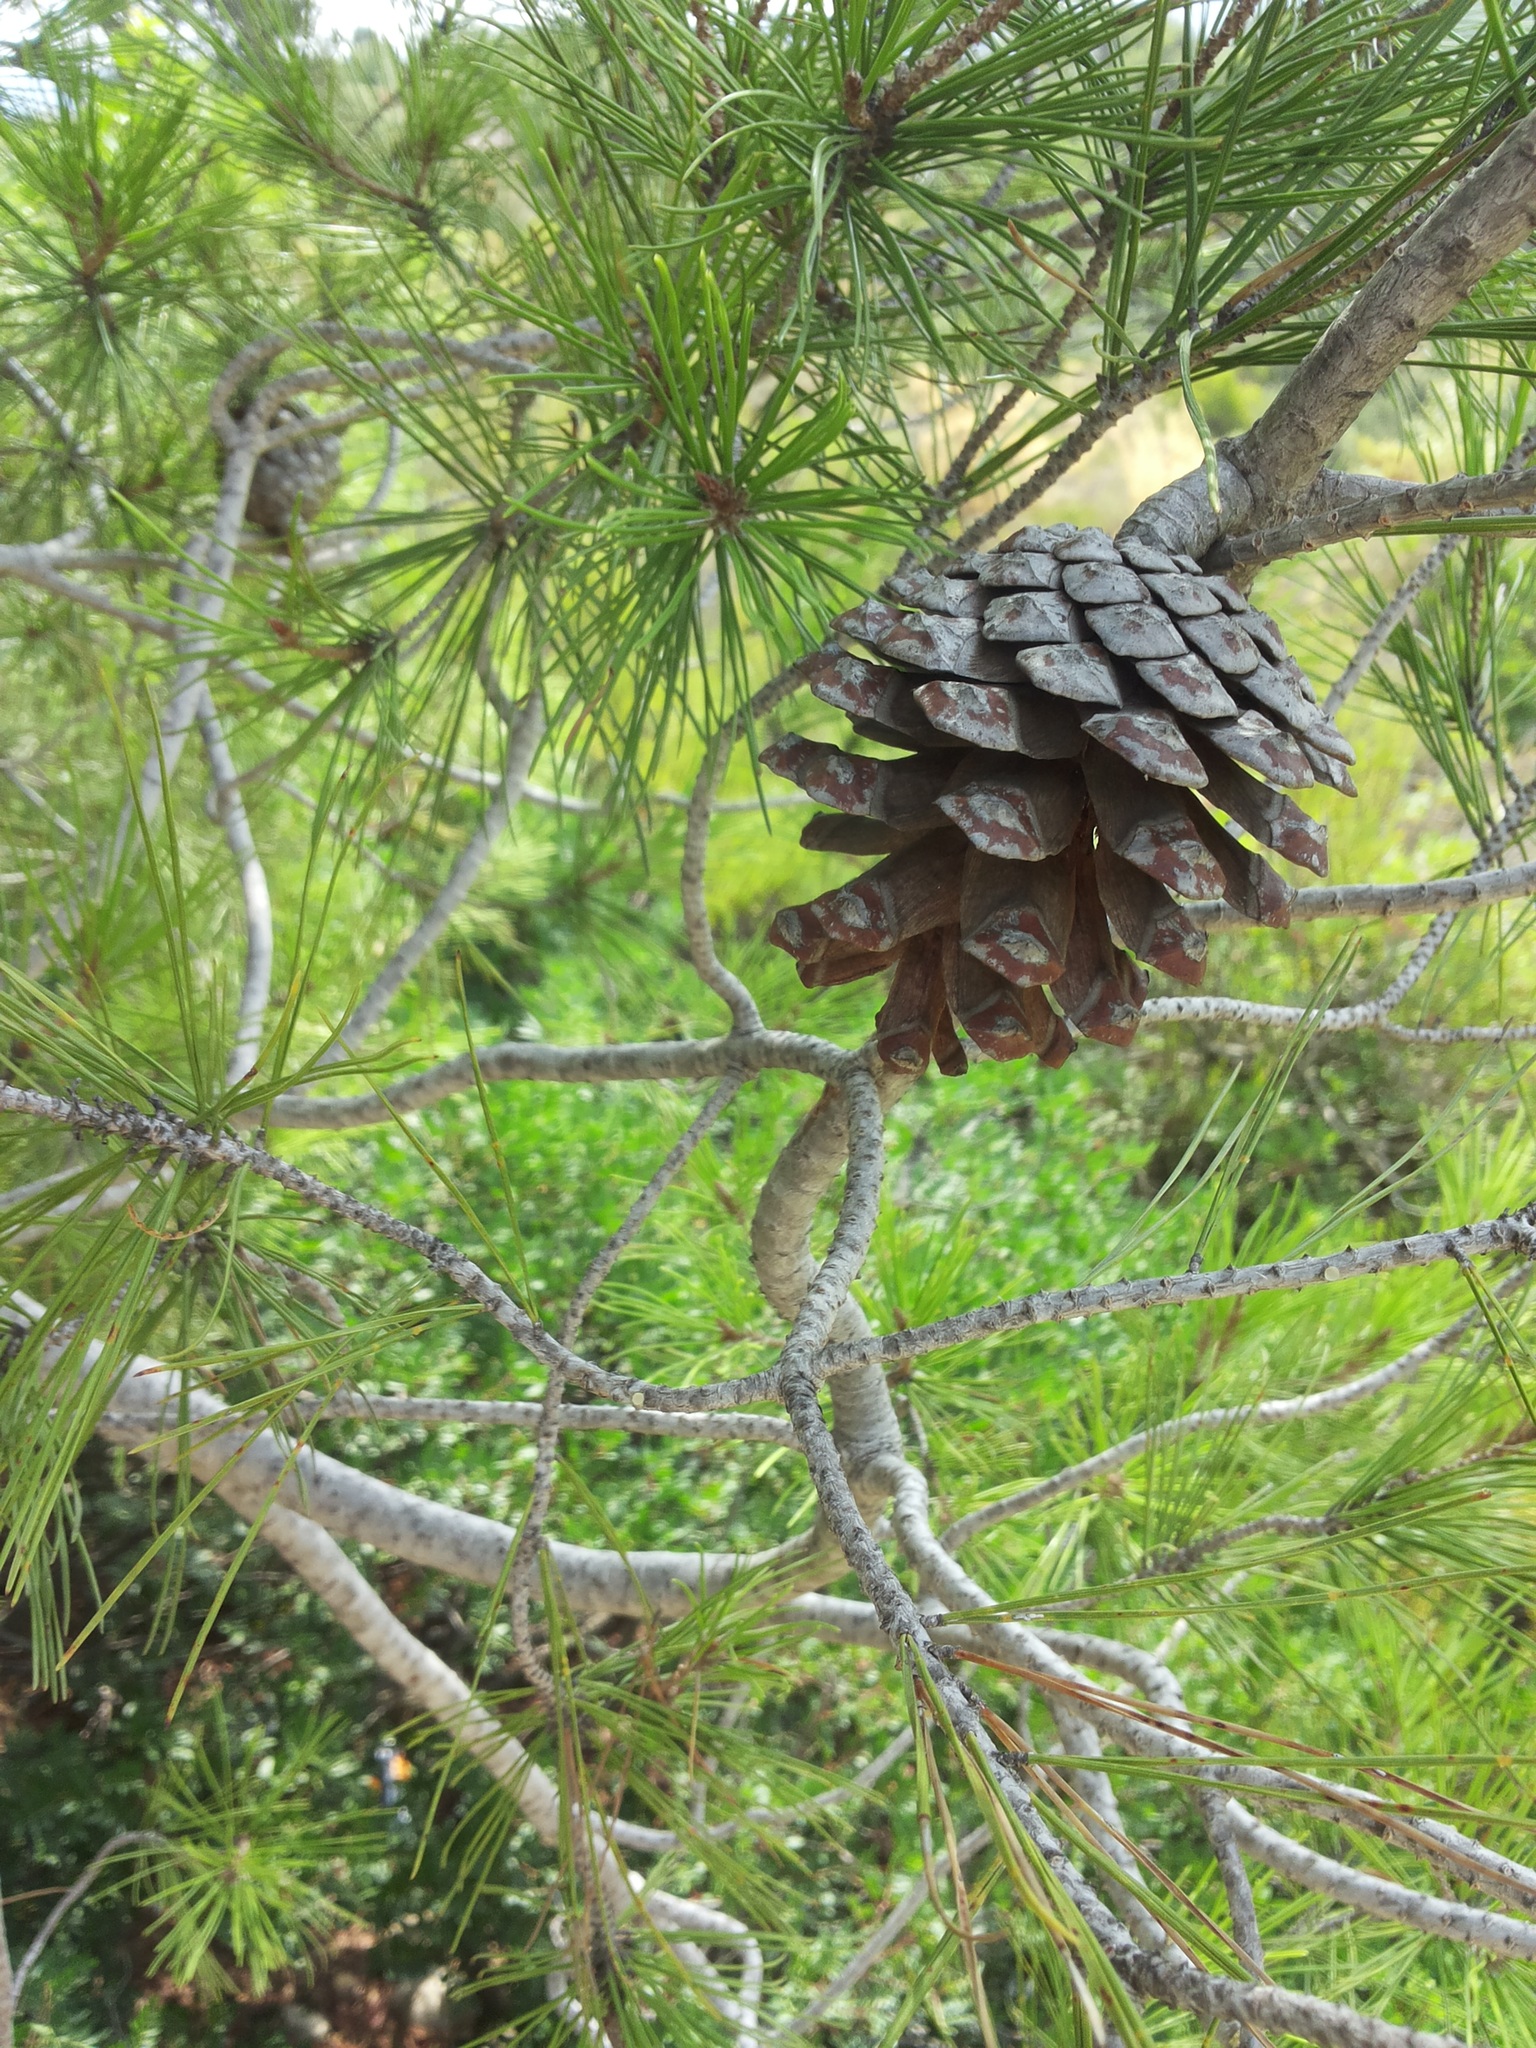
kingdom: Plantae
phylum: Tracheophyta
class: Pinopsida
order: Pinales
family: Pinaceae
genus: Pinus
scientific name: Pinus halepensis
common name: Aleppo pine
